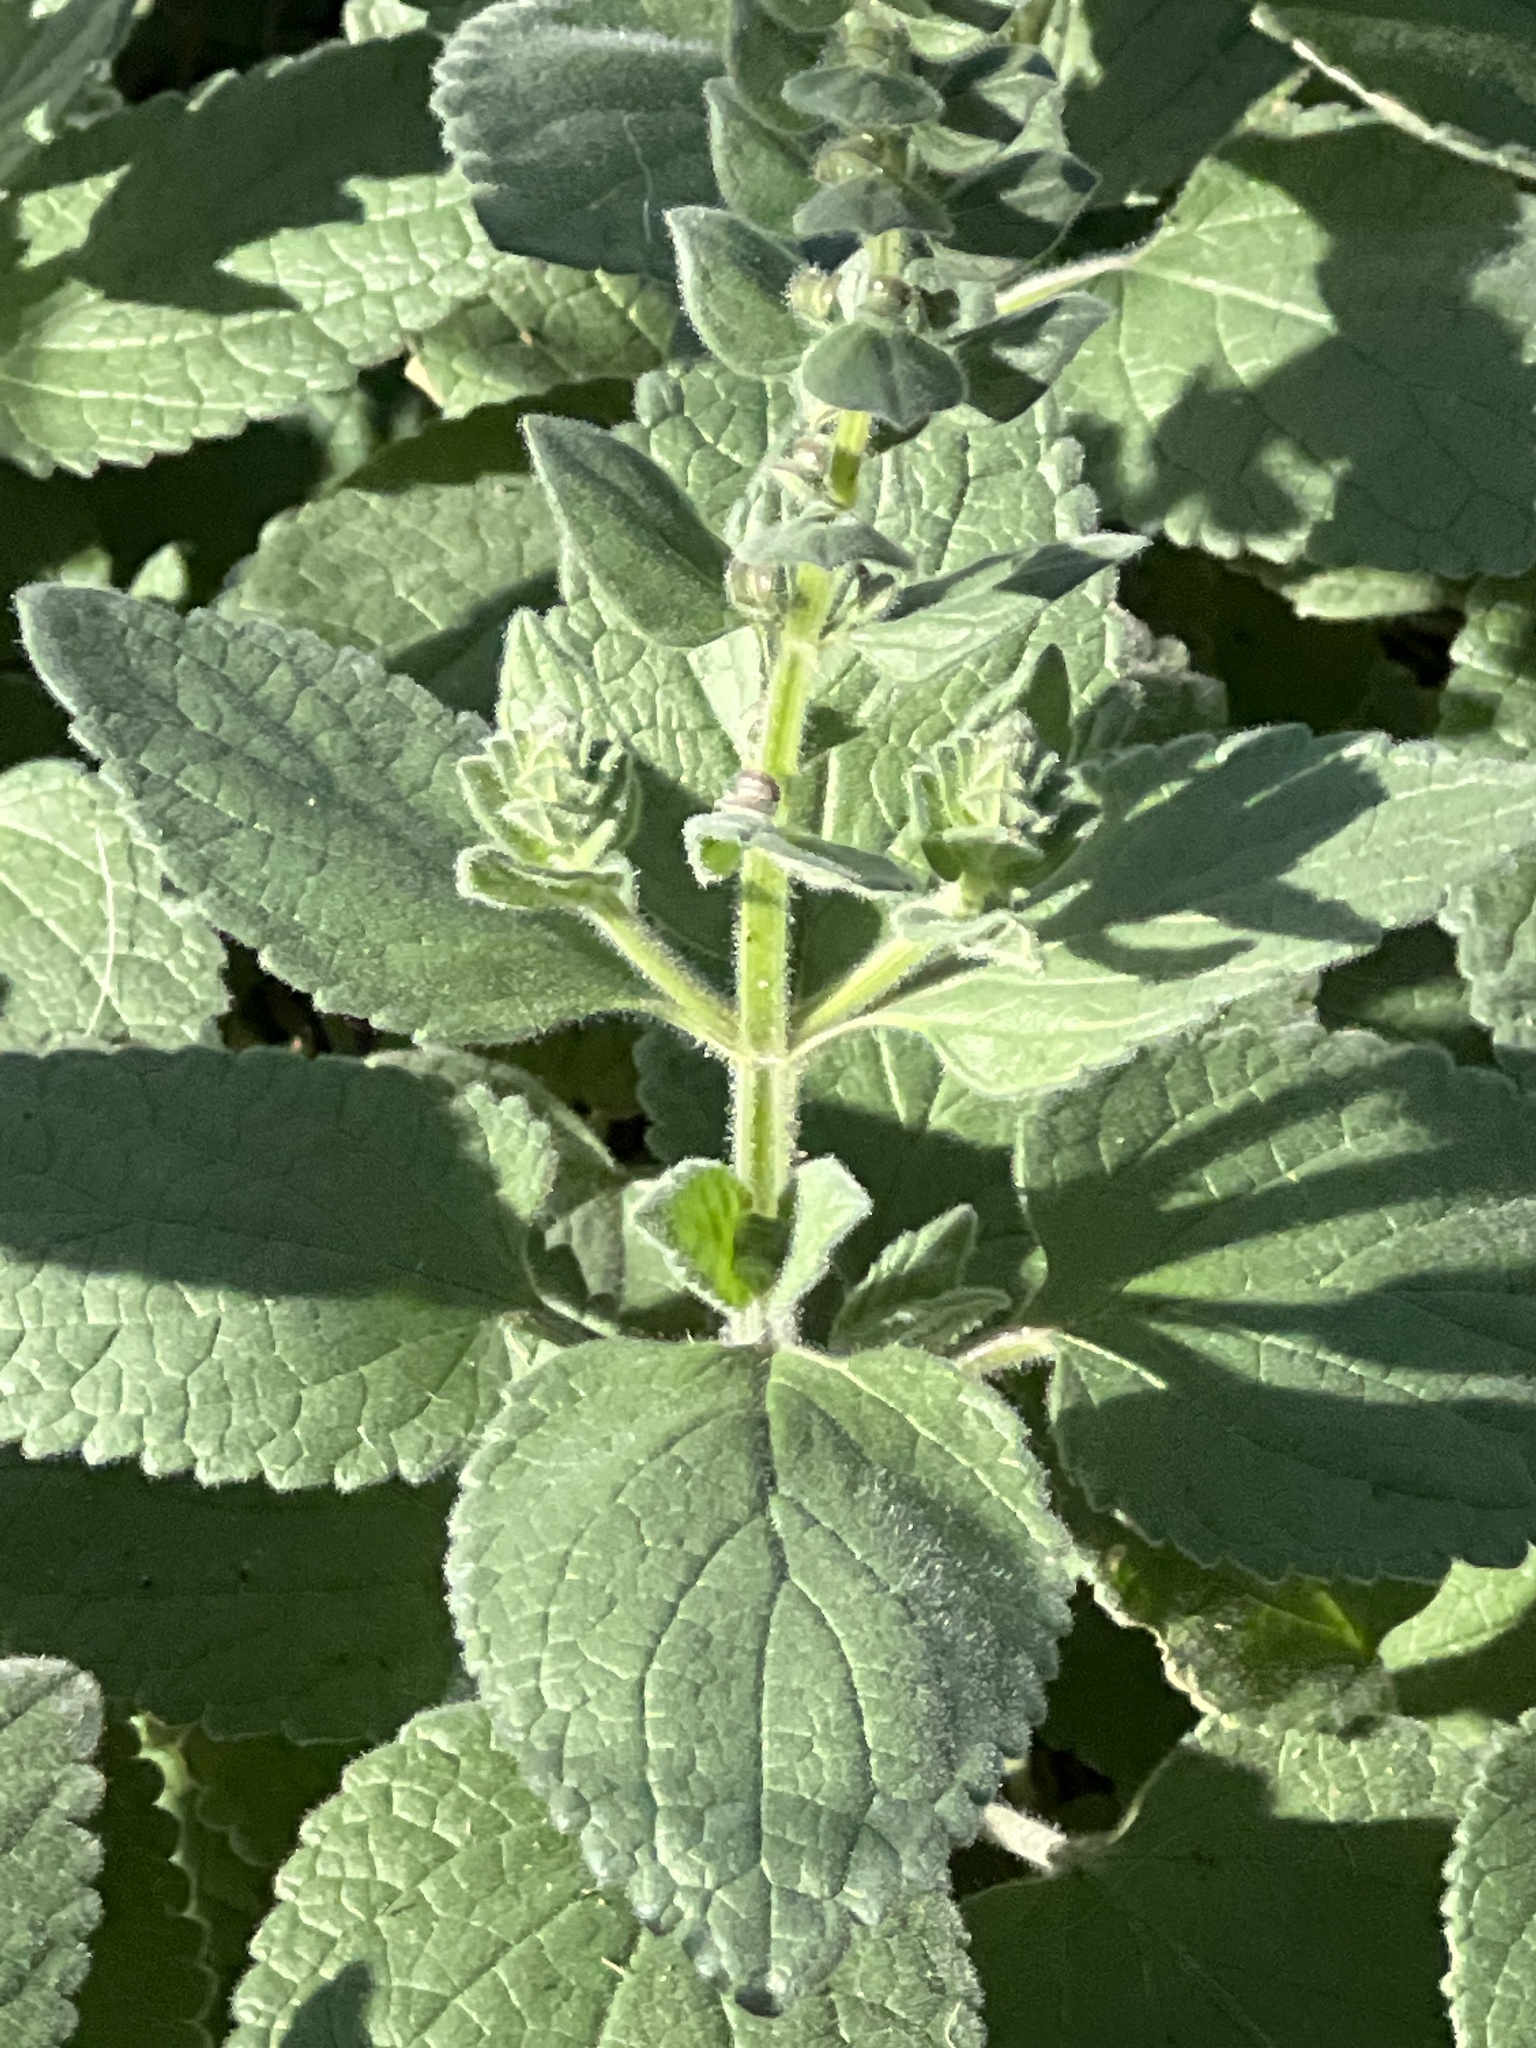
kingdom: Plantae
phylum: Tracheophyta
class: Magnoliopsida
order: Lamiales
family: Lamiaceae
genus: Scutellaria
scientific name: Scutellaria ovata
